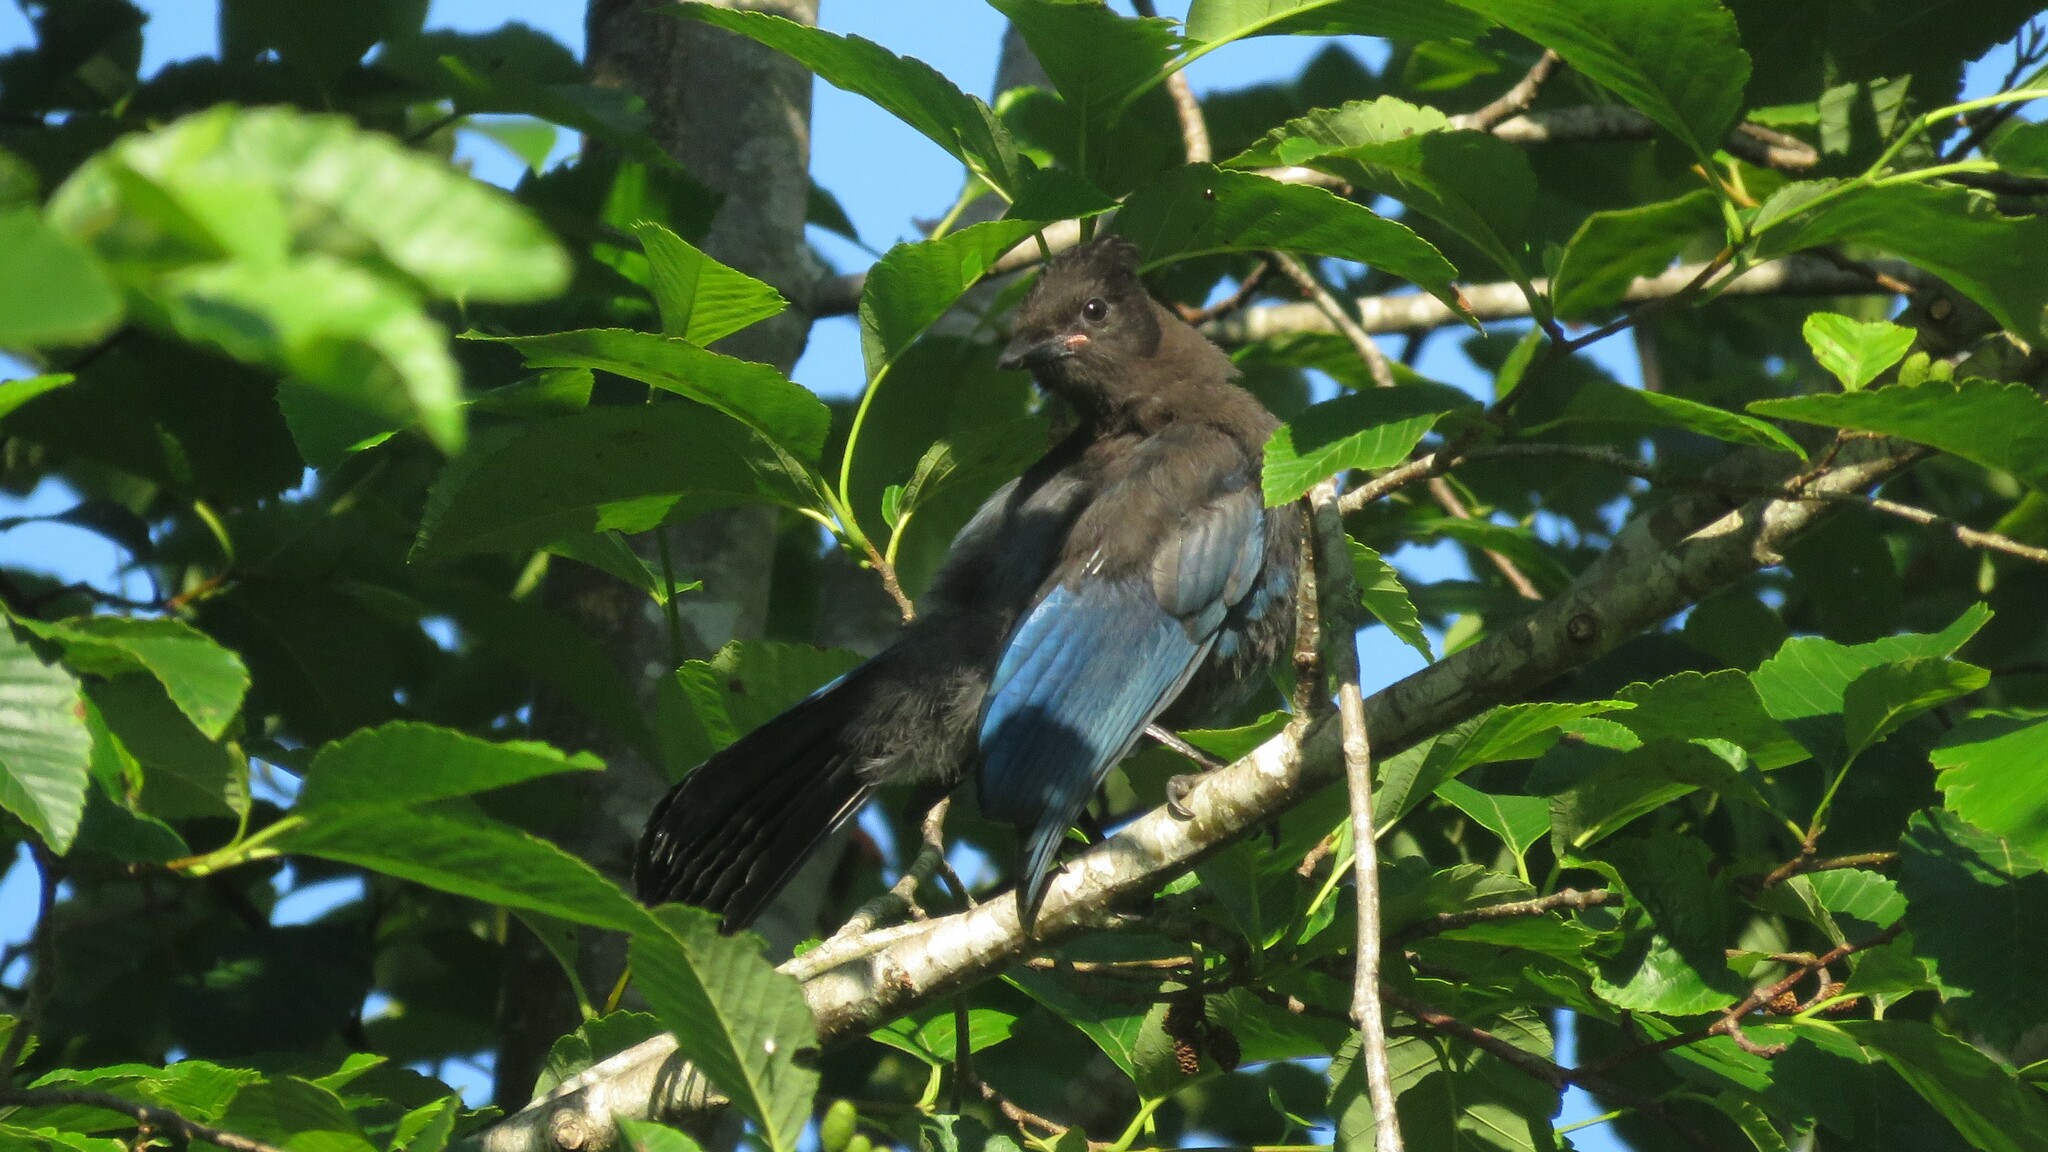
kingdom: Animalia
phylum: Chordata
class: Aves
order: Passeriformes
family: Corvidae
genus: Cyanocitta
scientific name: Cyanocitta stelleri
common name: Steller's jay
